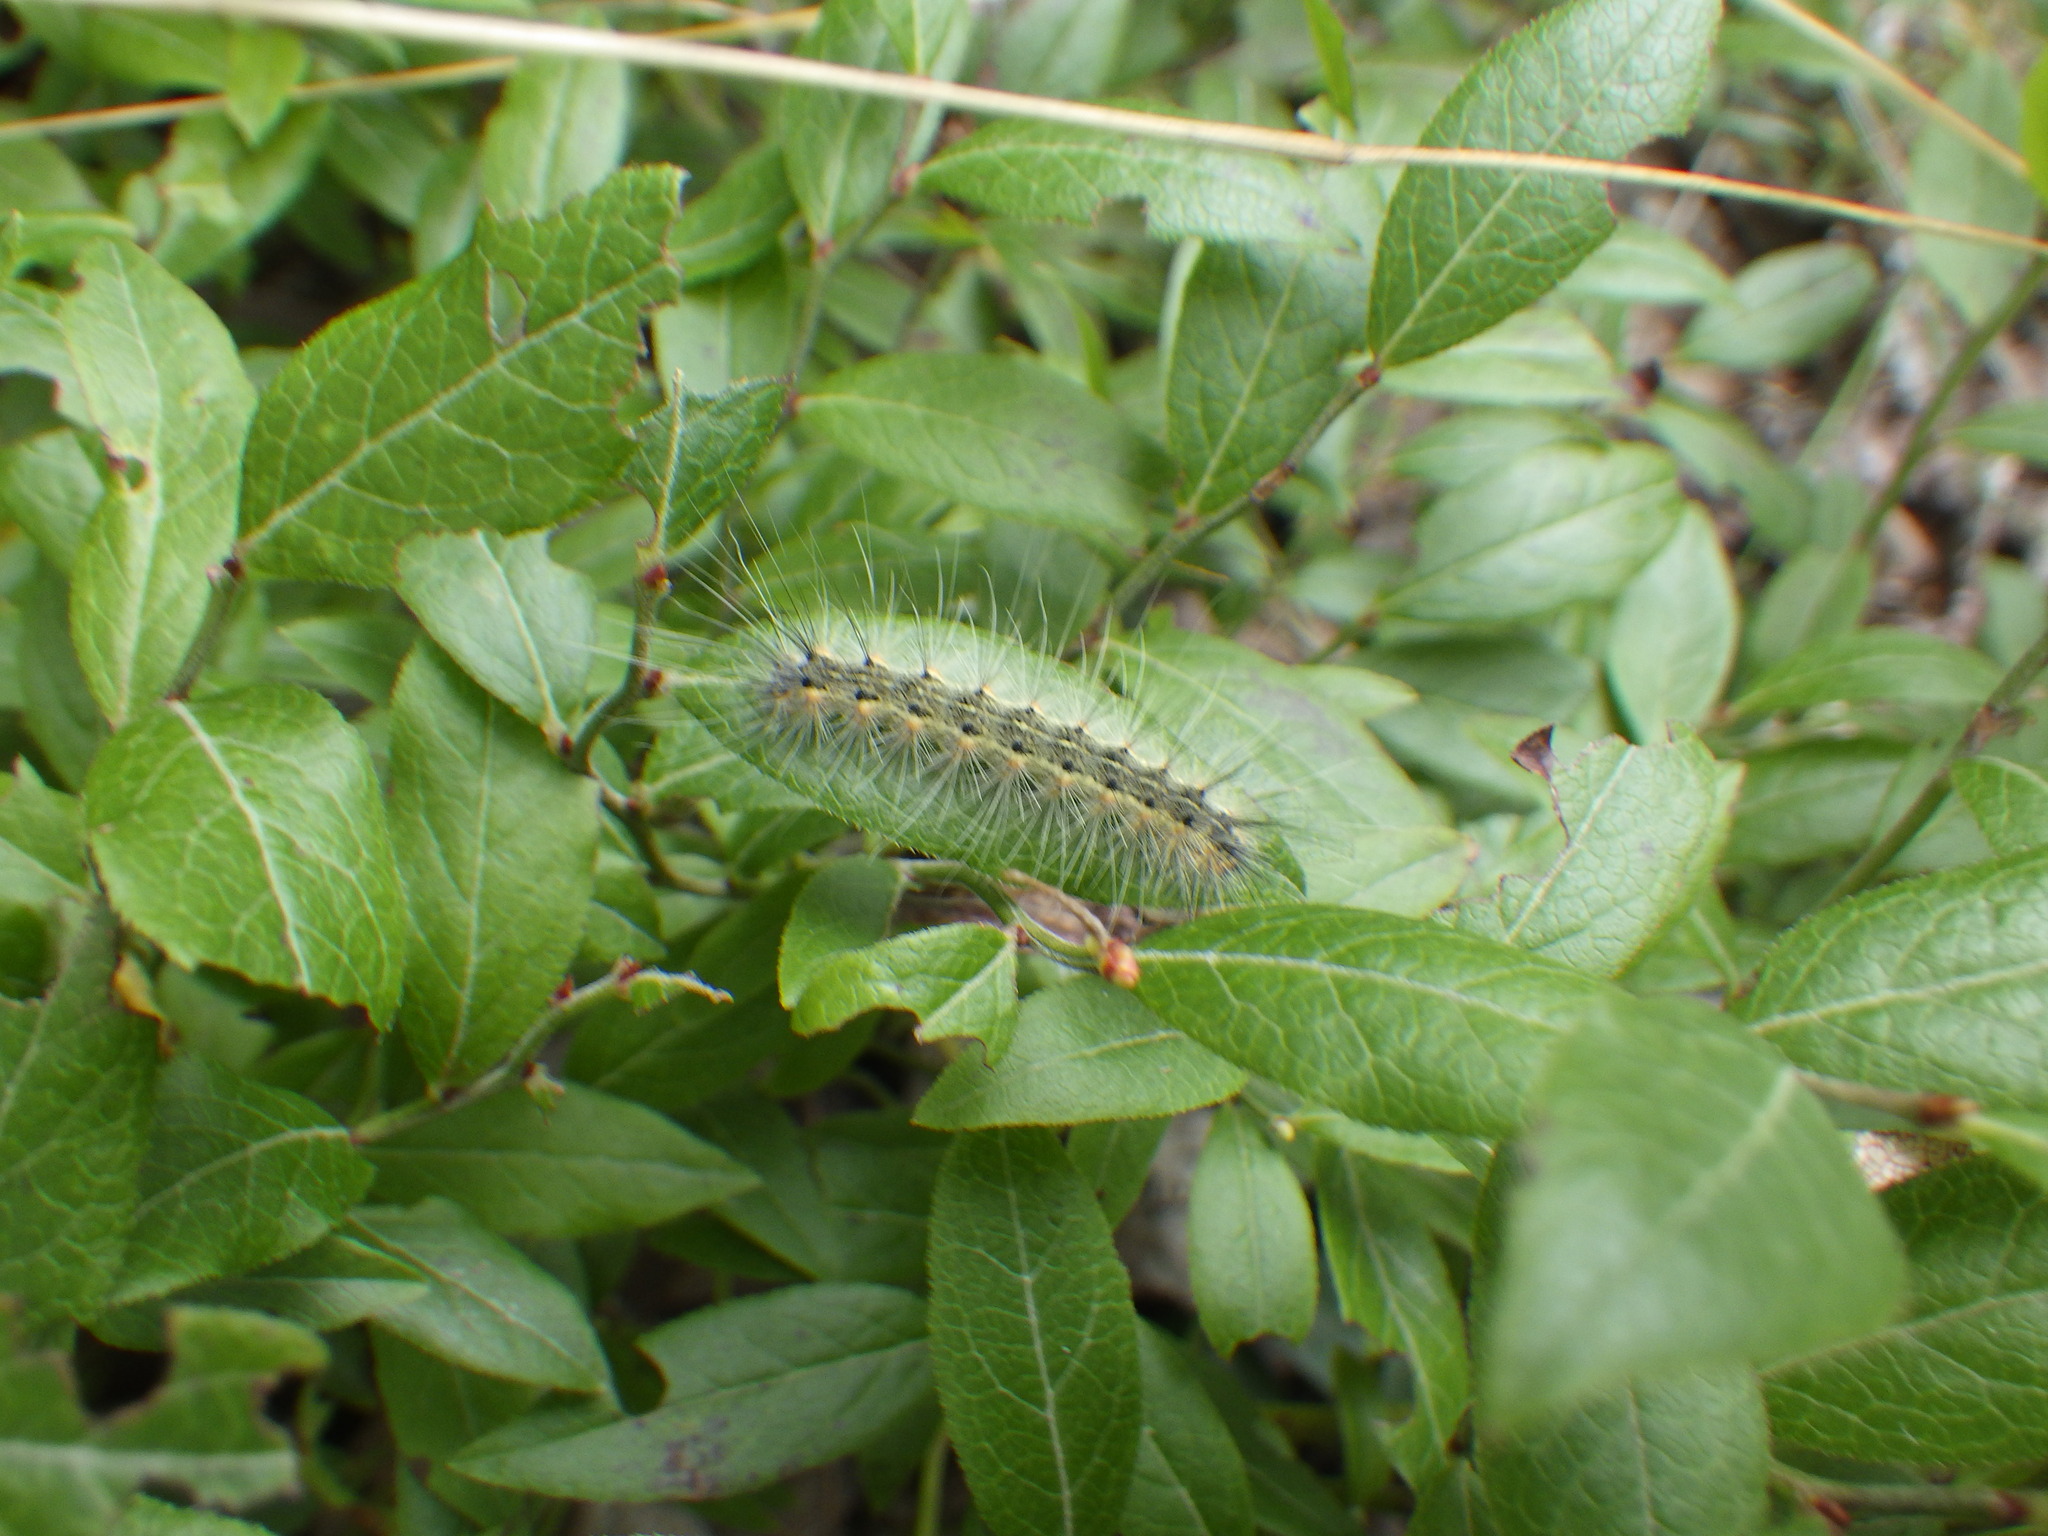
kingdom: Animalia
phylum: Arthropoda
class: Insecta
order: Lepidoptera
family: Erebidae
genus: Hyphantria
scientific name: Hyphantria cunea
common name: American white moth
